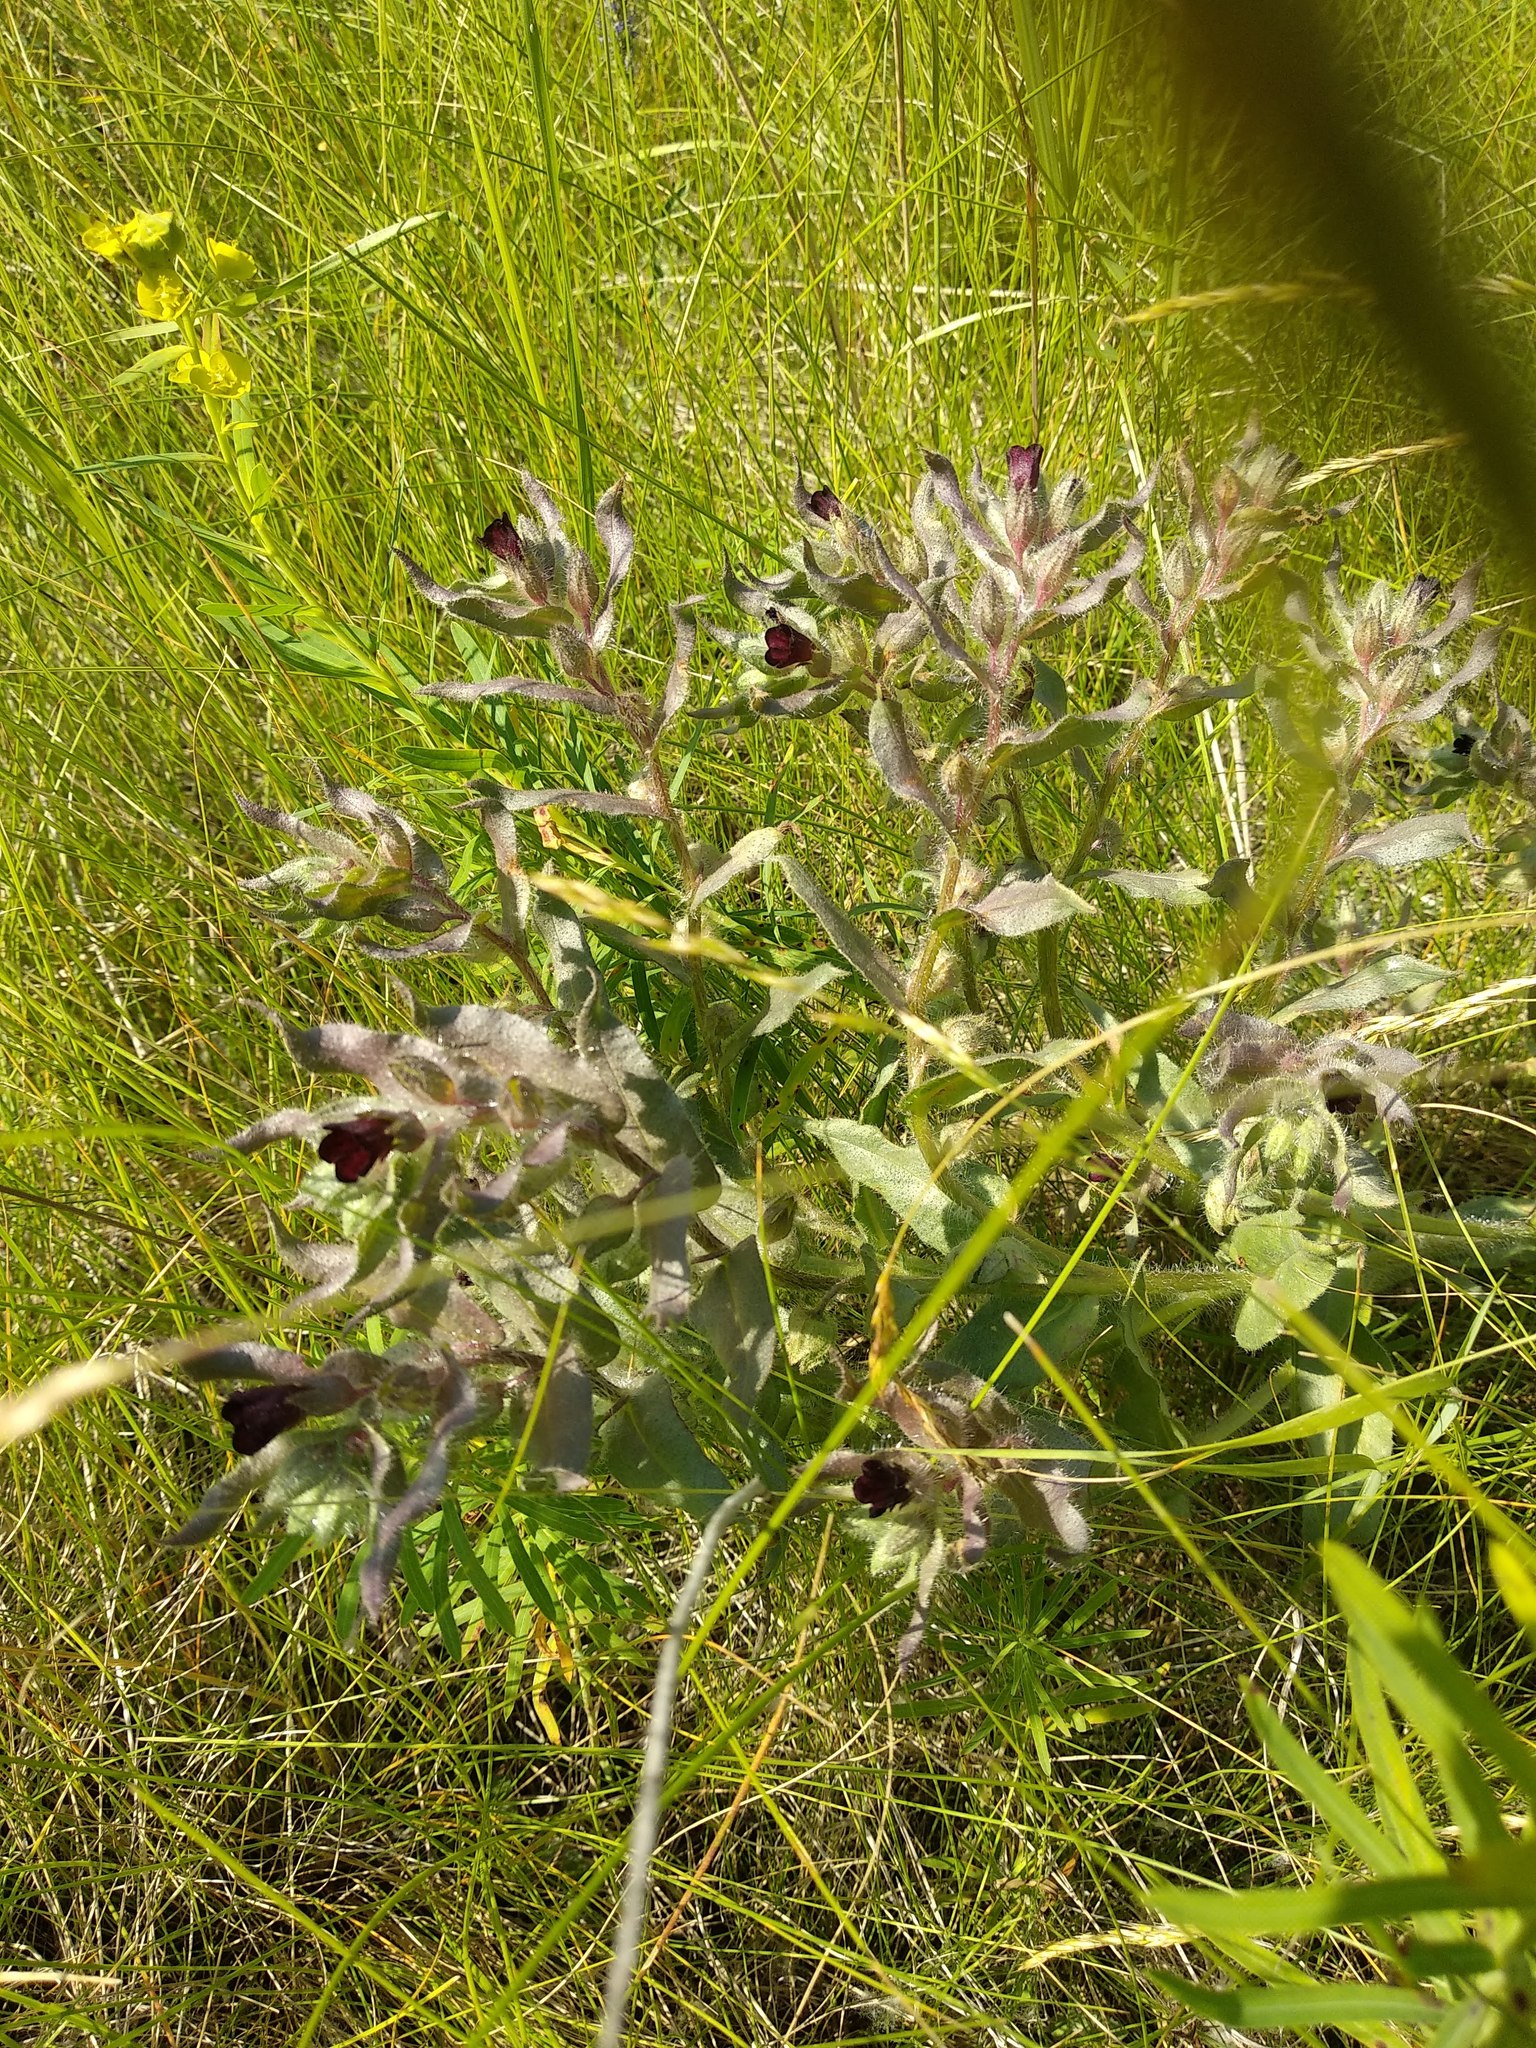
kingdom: Plantae
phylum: Tracheophyta
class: Magnoliopsida
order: Boraginales
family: Boraginaceae
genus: Nonea
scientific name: Nonea pulla
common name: Brown nonea
